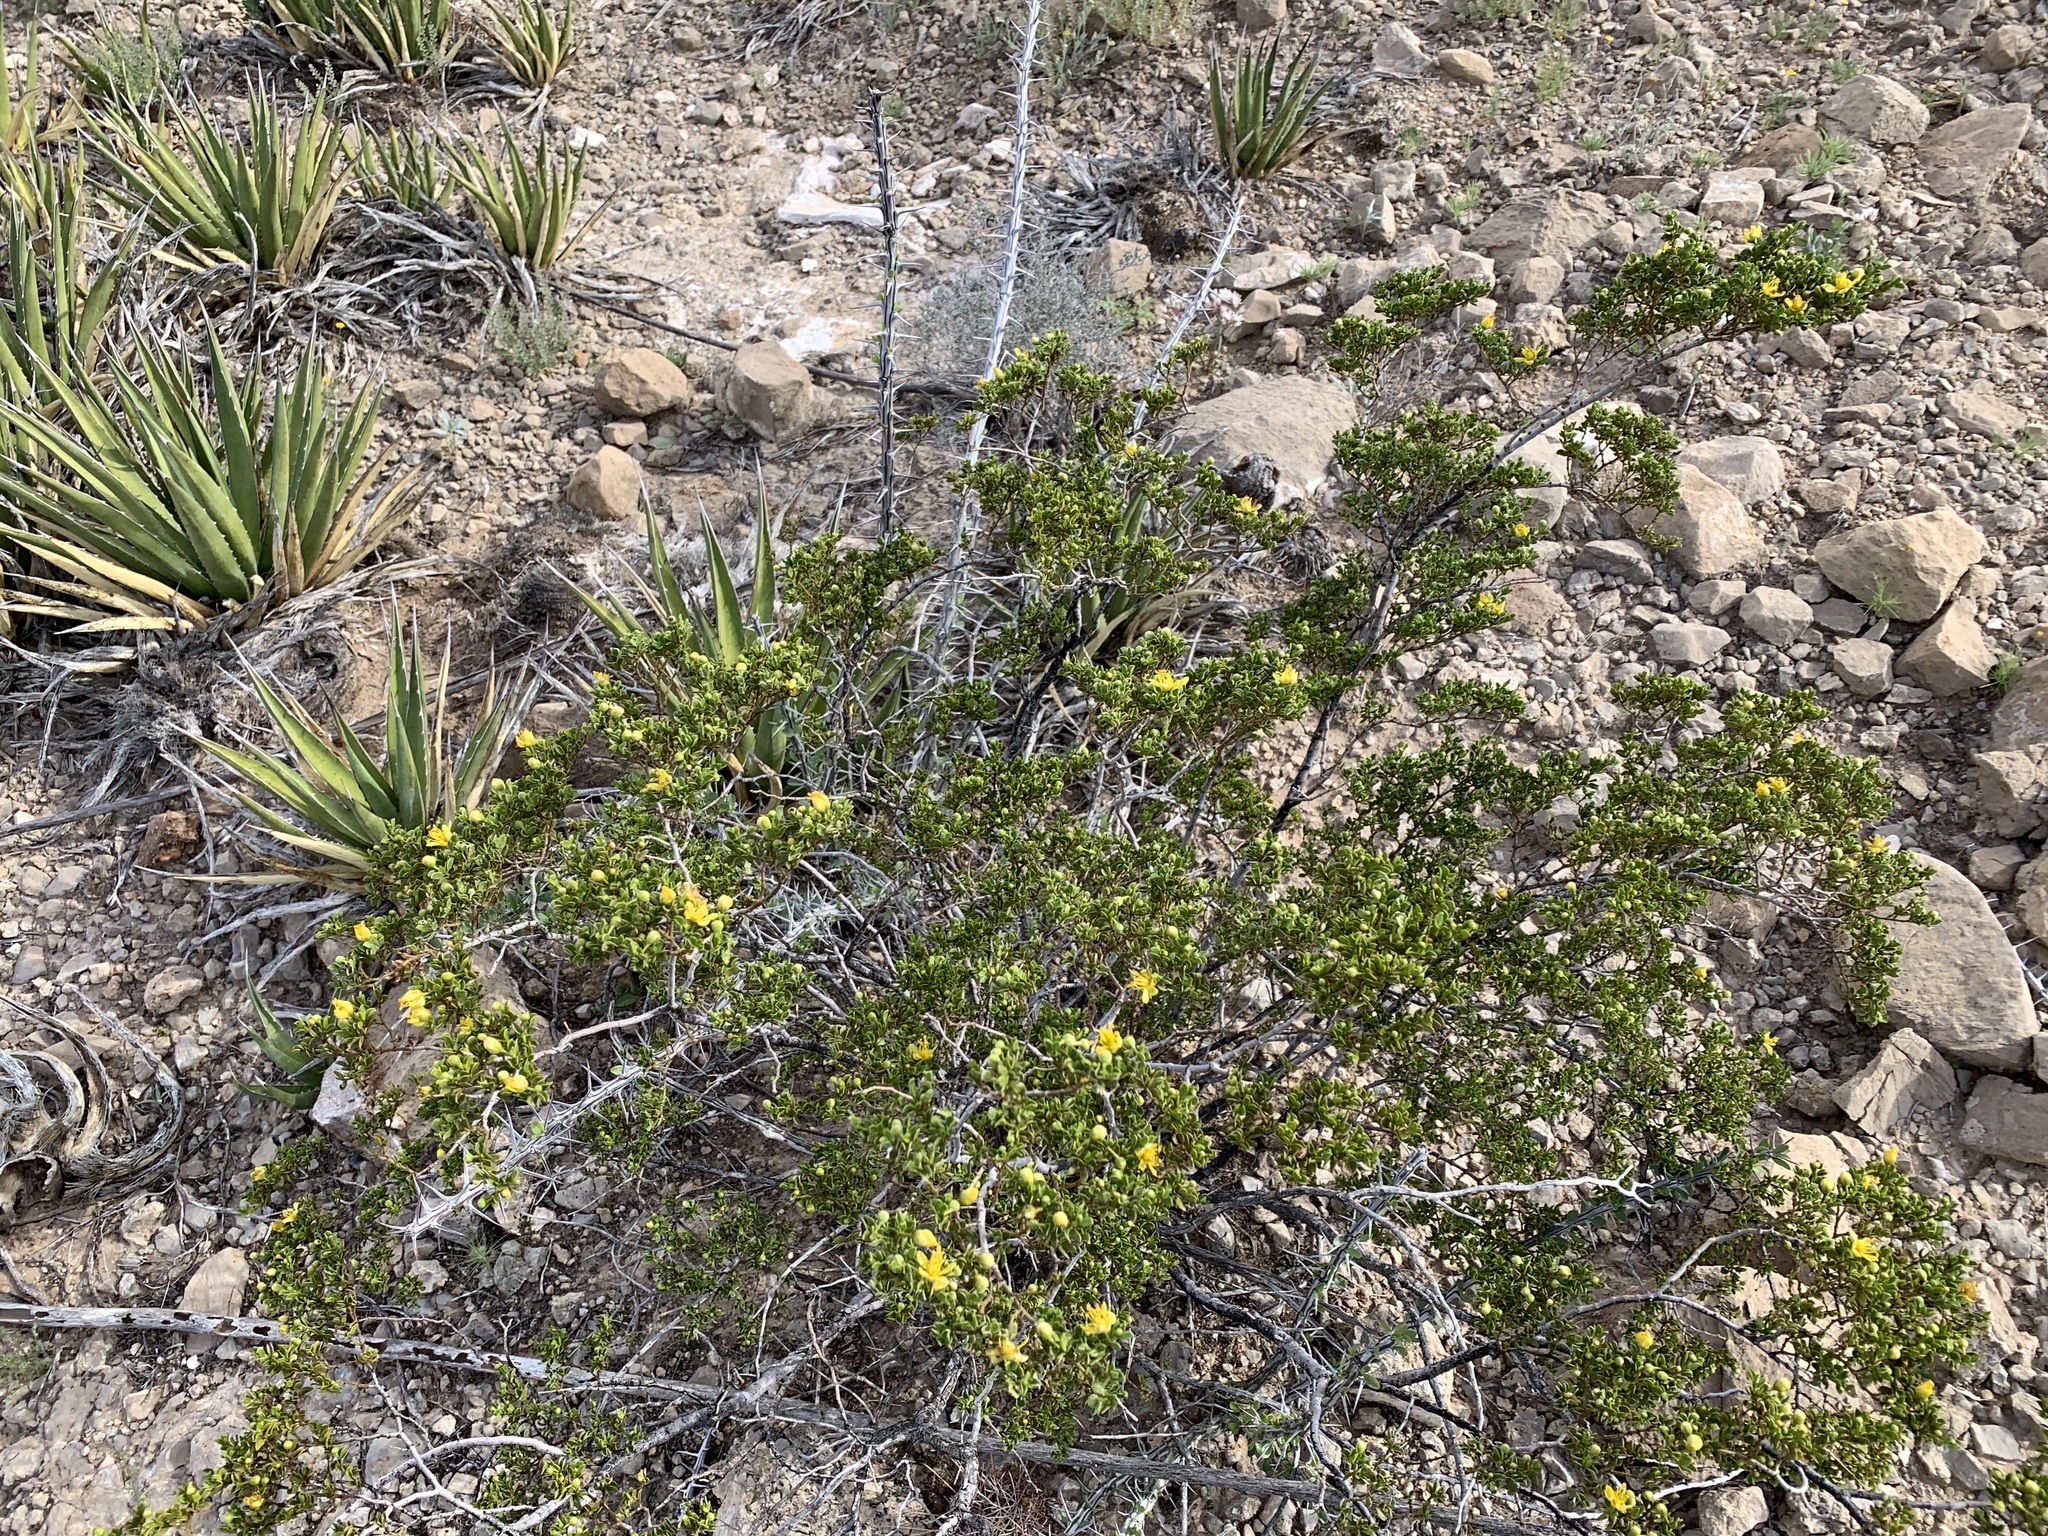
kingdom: Plantae
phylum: Tracheophyta
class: Magnoliopsida
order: Zygophyllales
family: Zygophyllaceae
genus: Larrea
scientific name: Larrea tridentata
